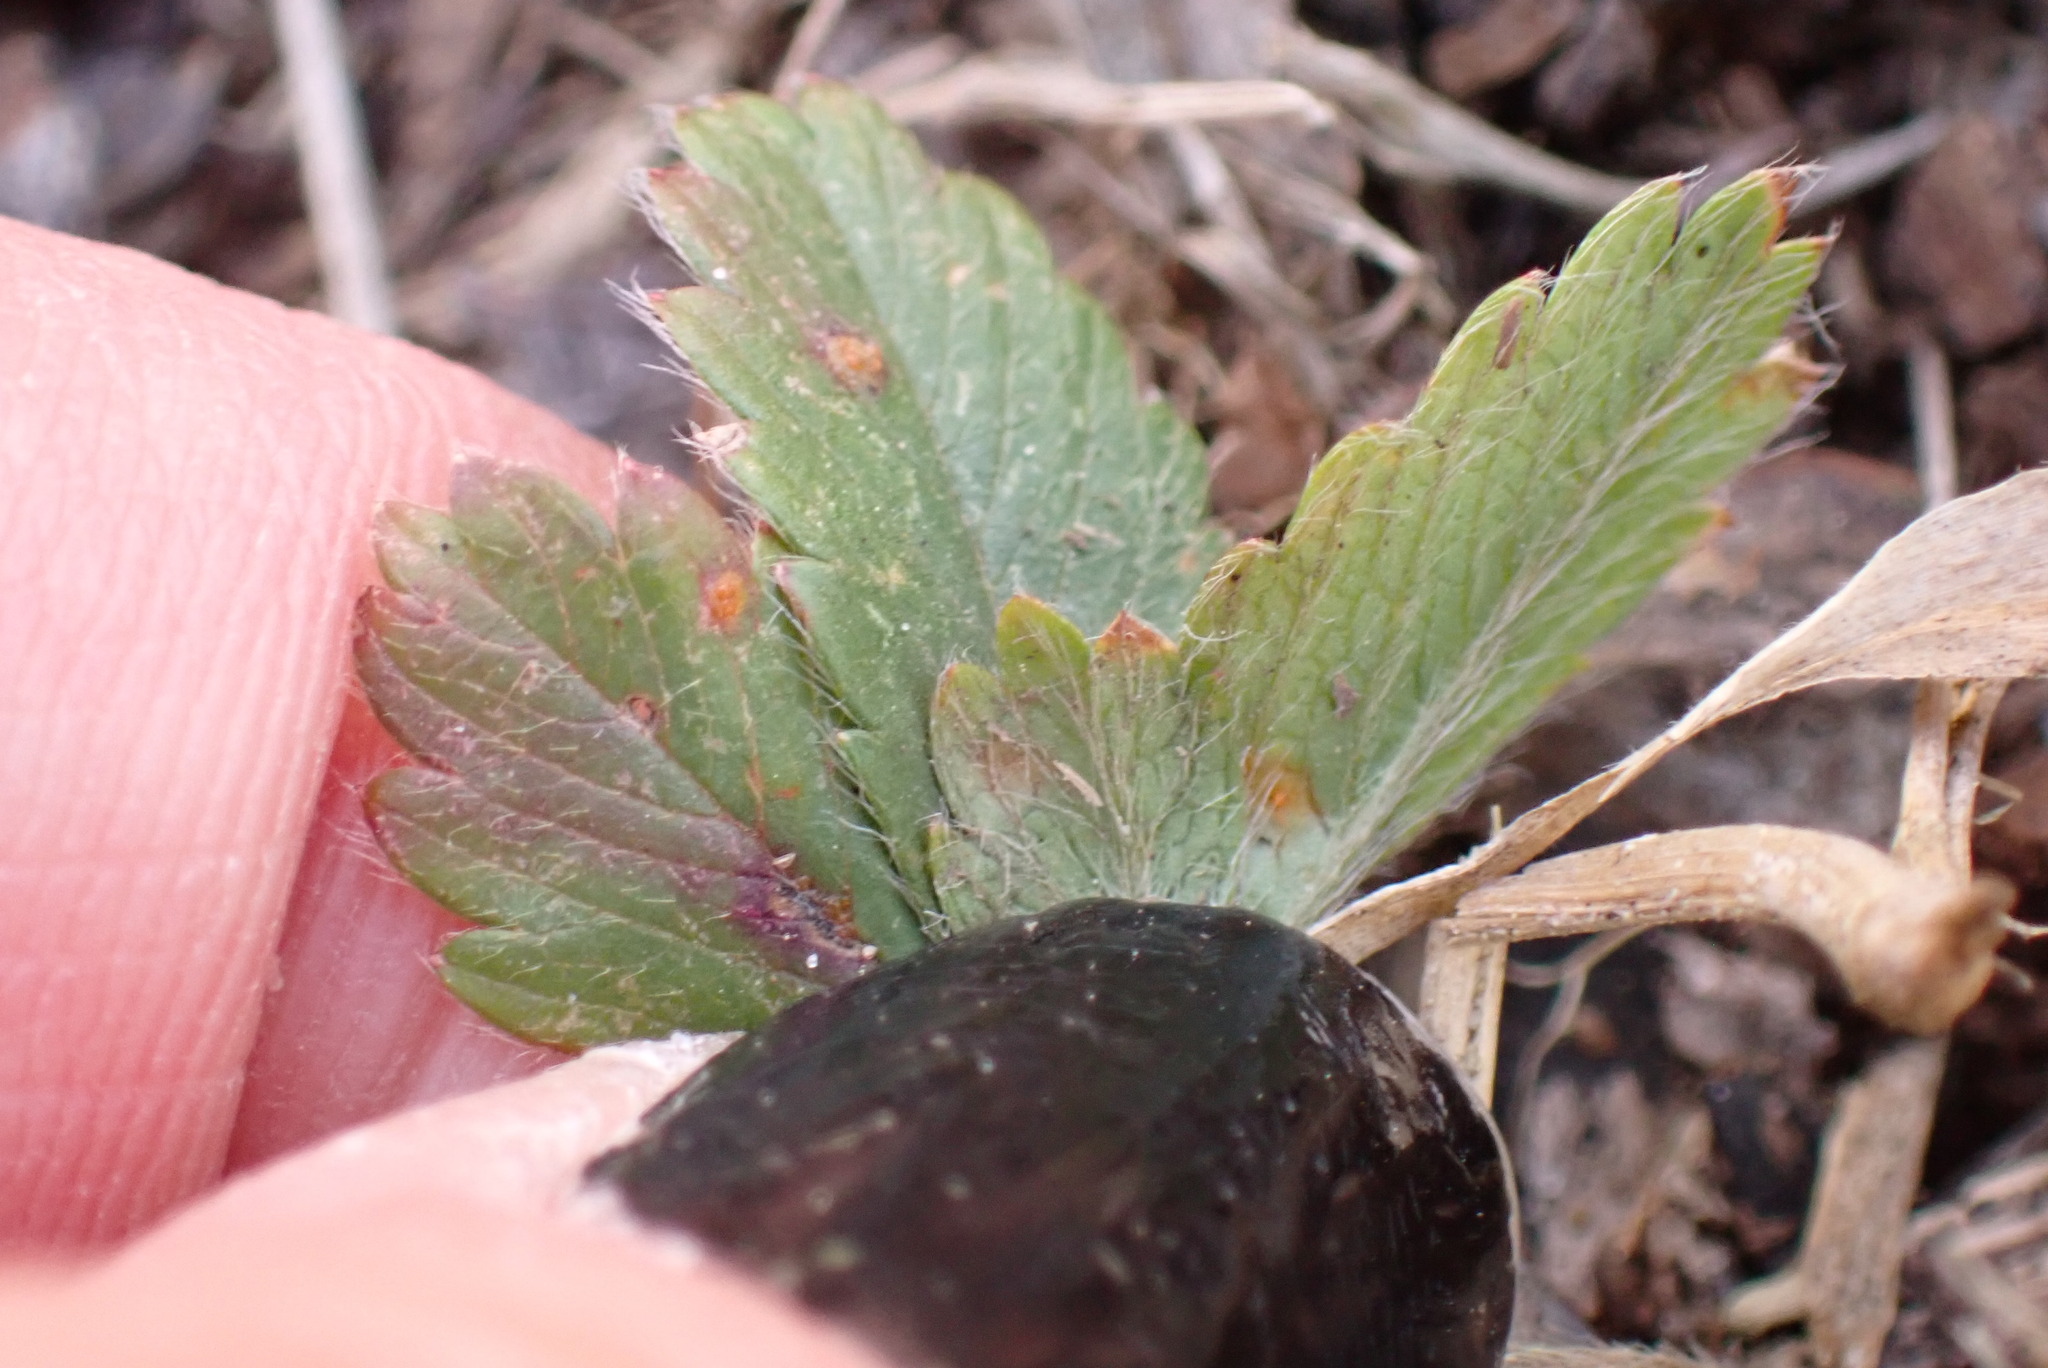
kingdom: Fungi
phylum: Basidiomycota
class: Pucciniomycetes
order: Pucciniales
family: Phragmidiaceae
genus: Phragmidium
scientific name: Phragmidium potentillae
